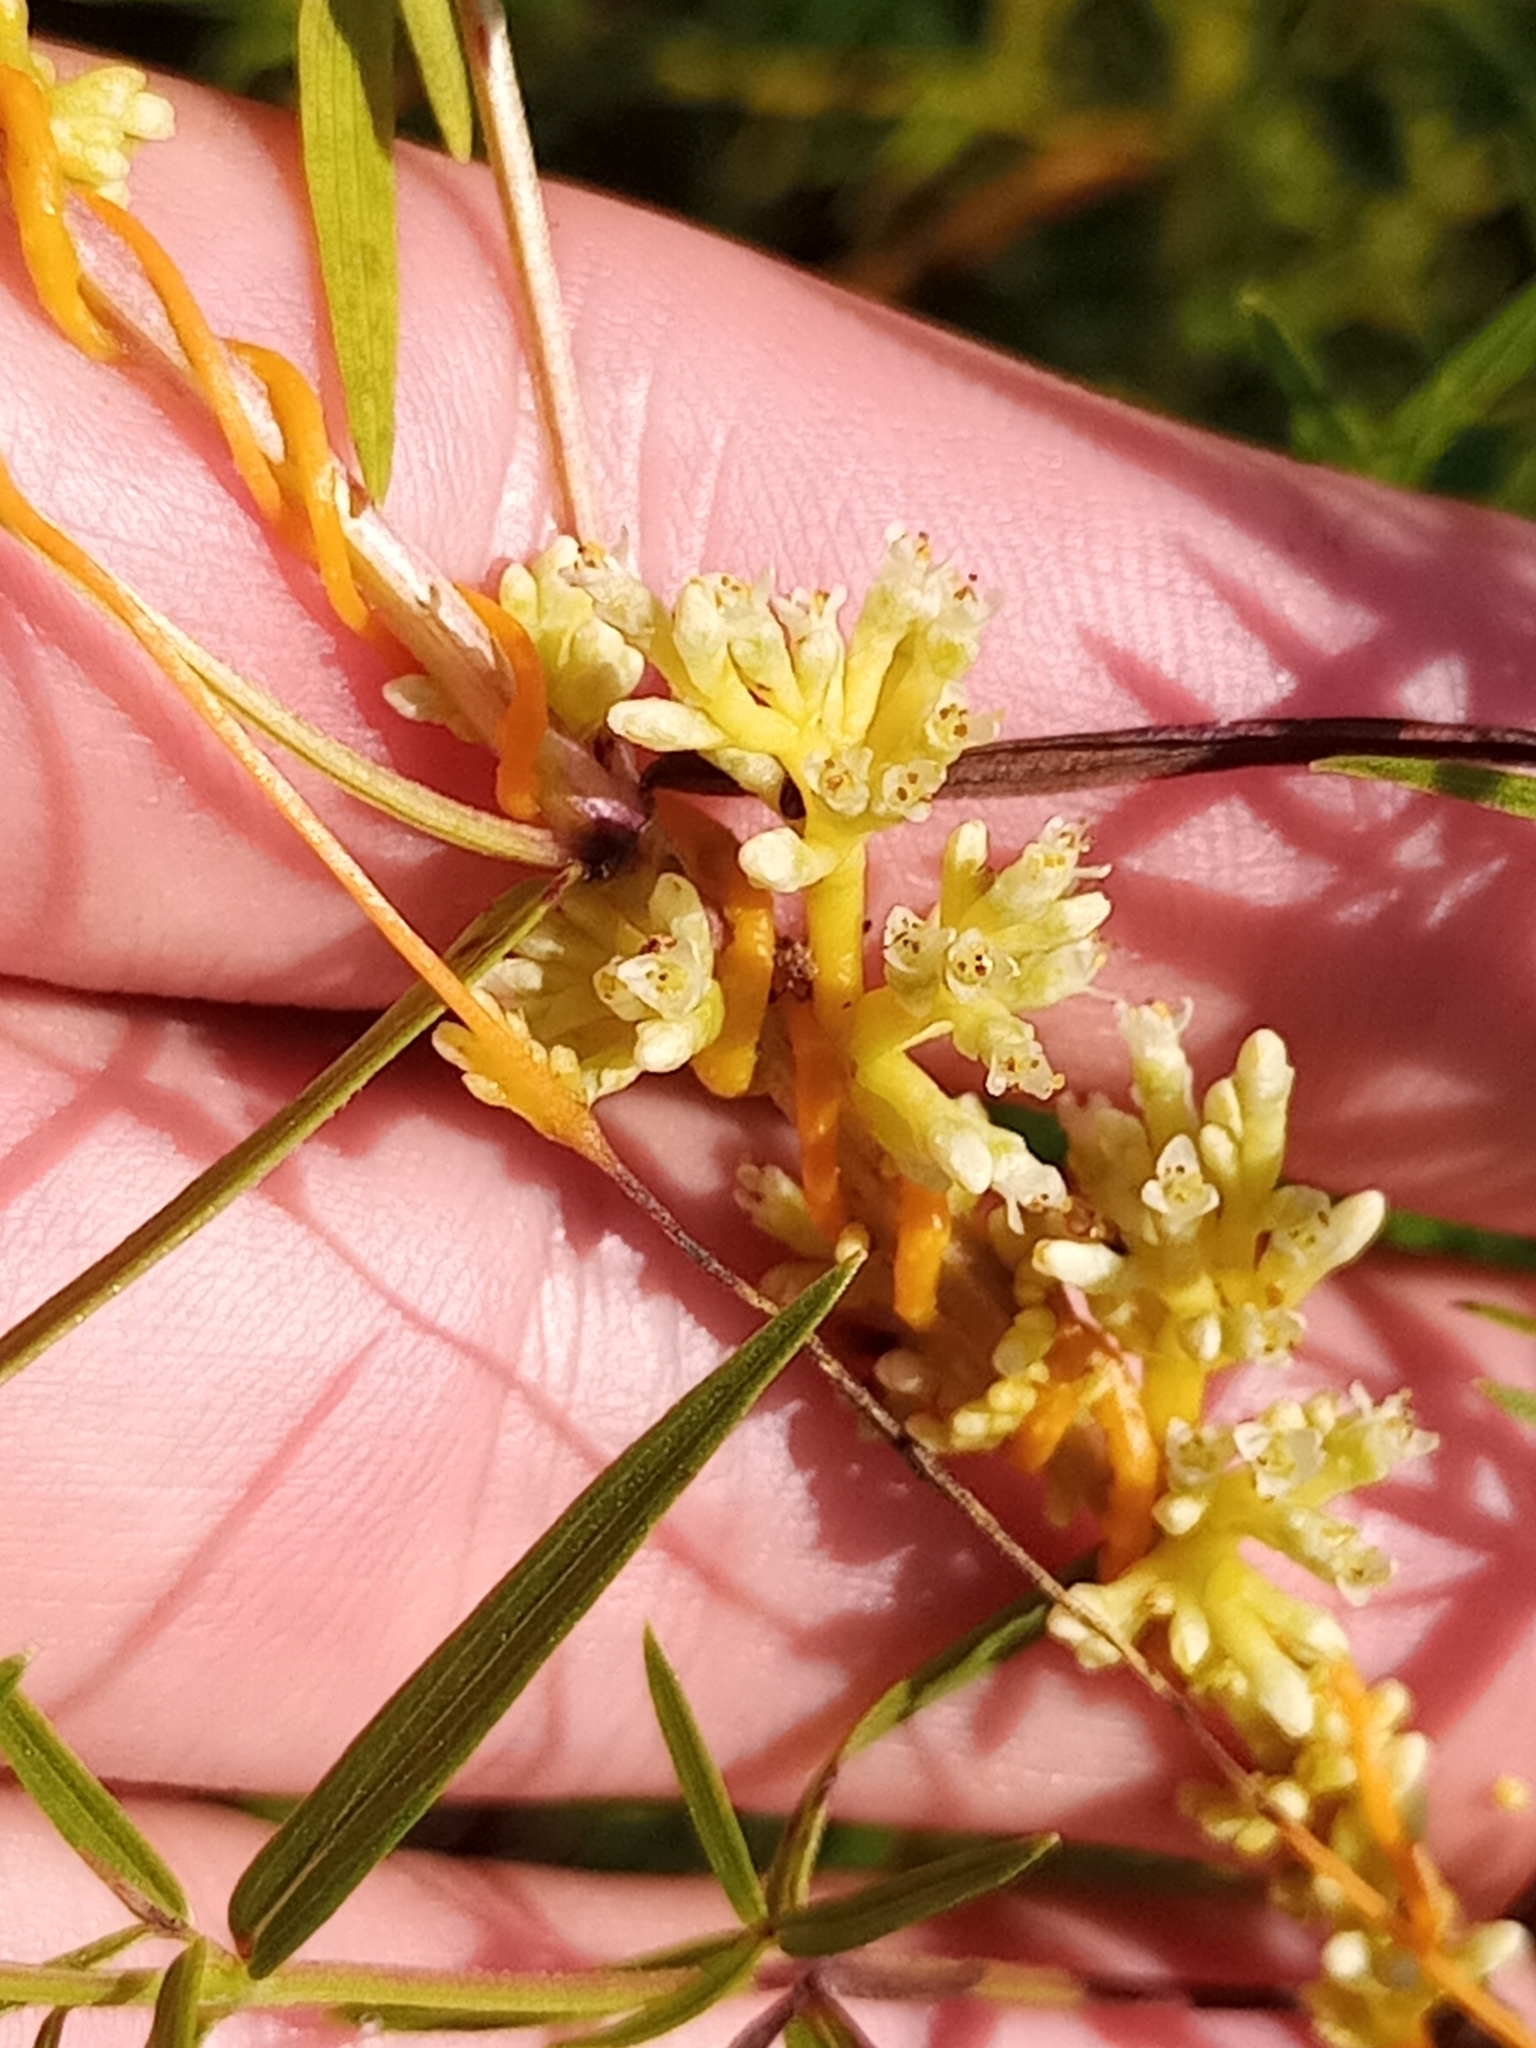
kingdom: Plantae
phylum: Tracheophyta
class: Magnoliopsida
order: Solanales
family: Convolvulaceae
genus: Cuscuta
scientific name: Cuscuta cephalanthi
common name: Button dodder
